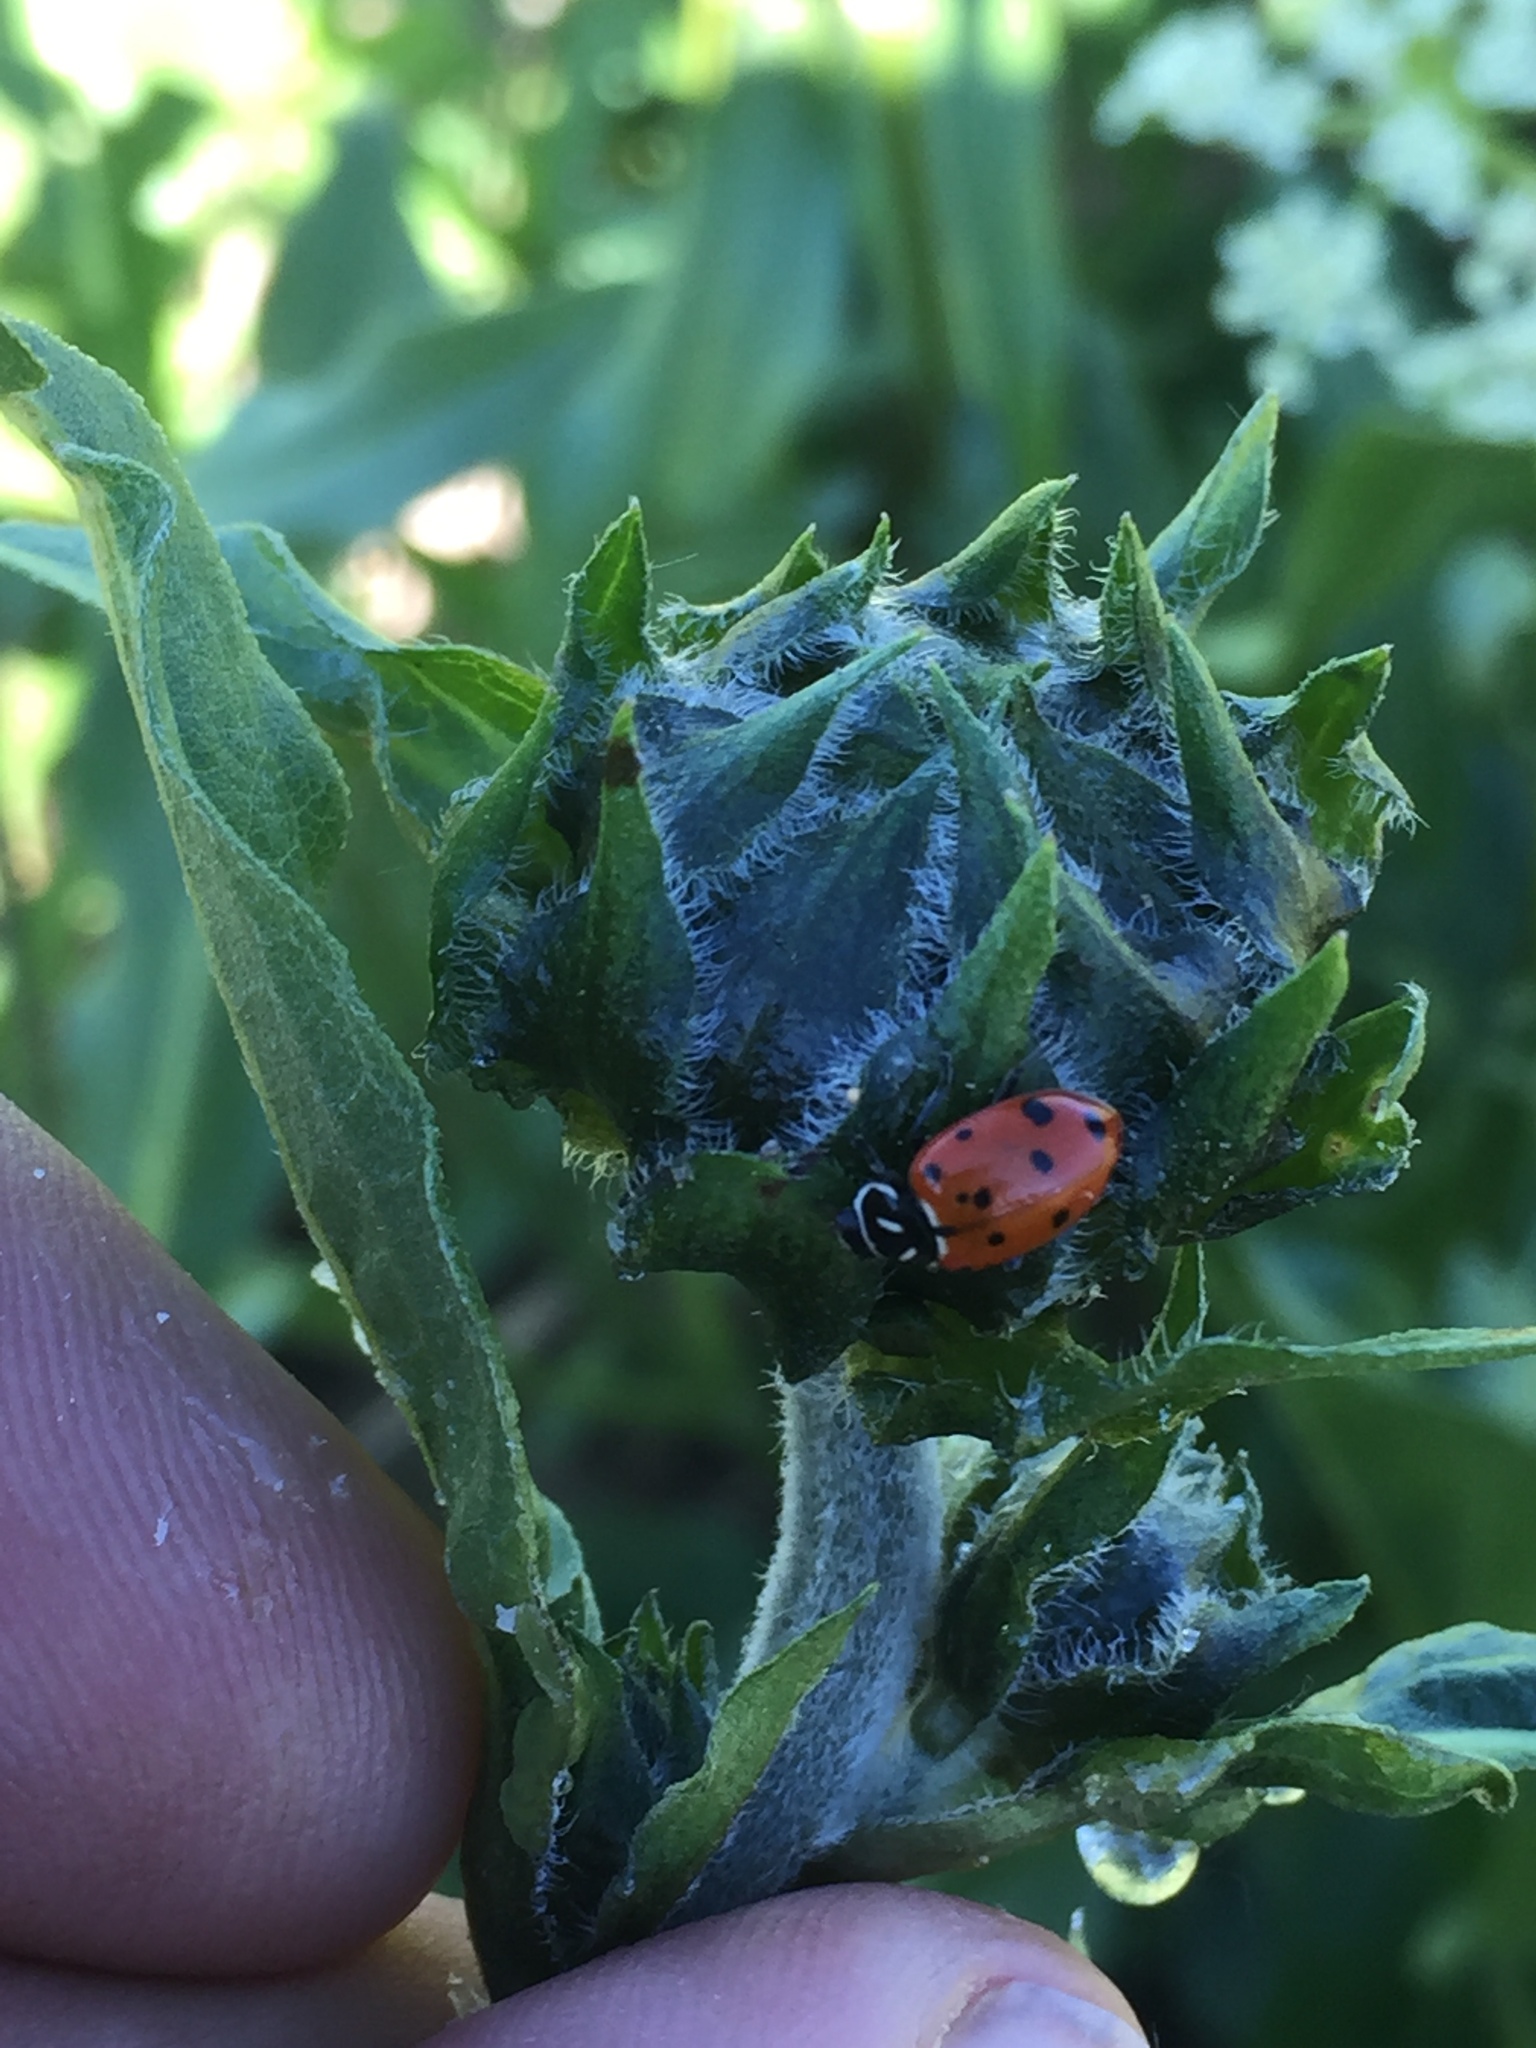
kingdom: Animalia
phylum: Arthropoda
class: Insecta
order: Coleoptera
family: Coccinellidae
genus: Hippodamia
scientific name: Hippodamia convergens
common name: Convergent lady beetle
